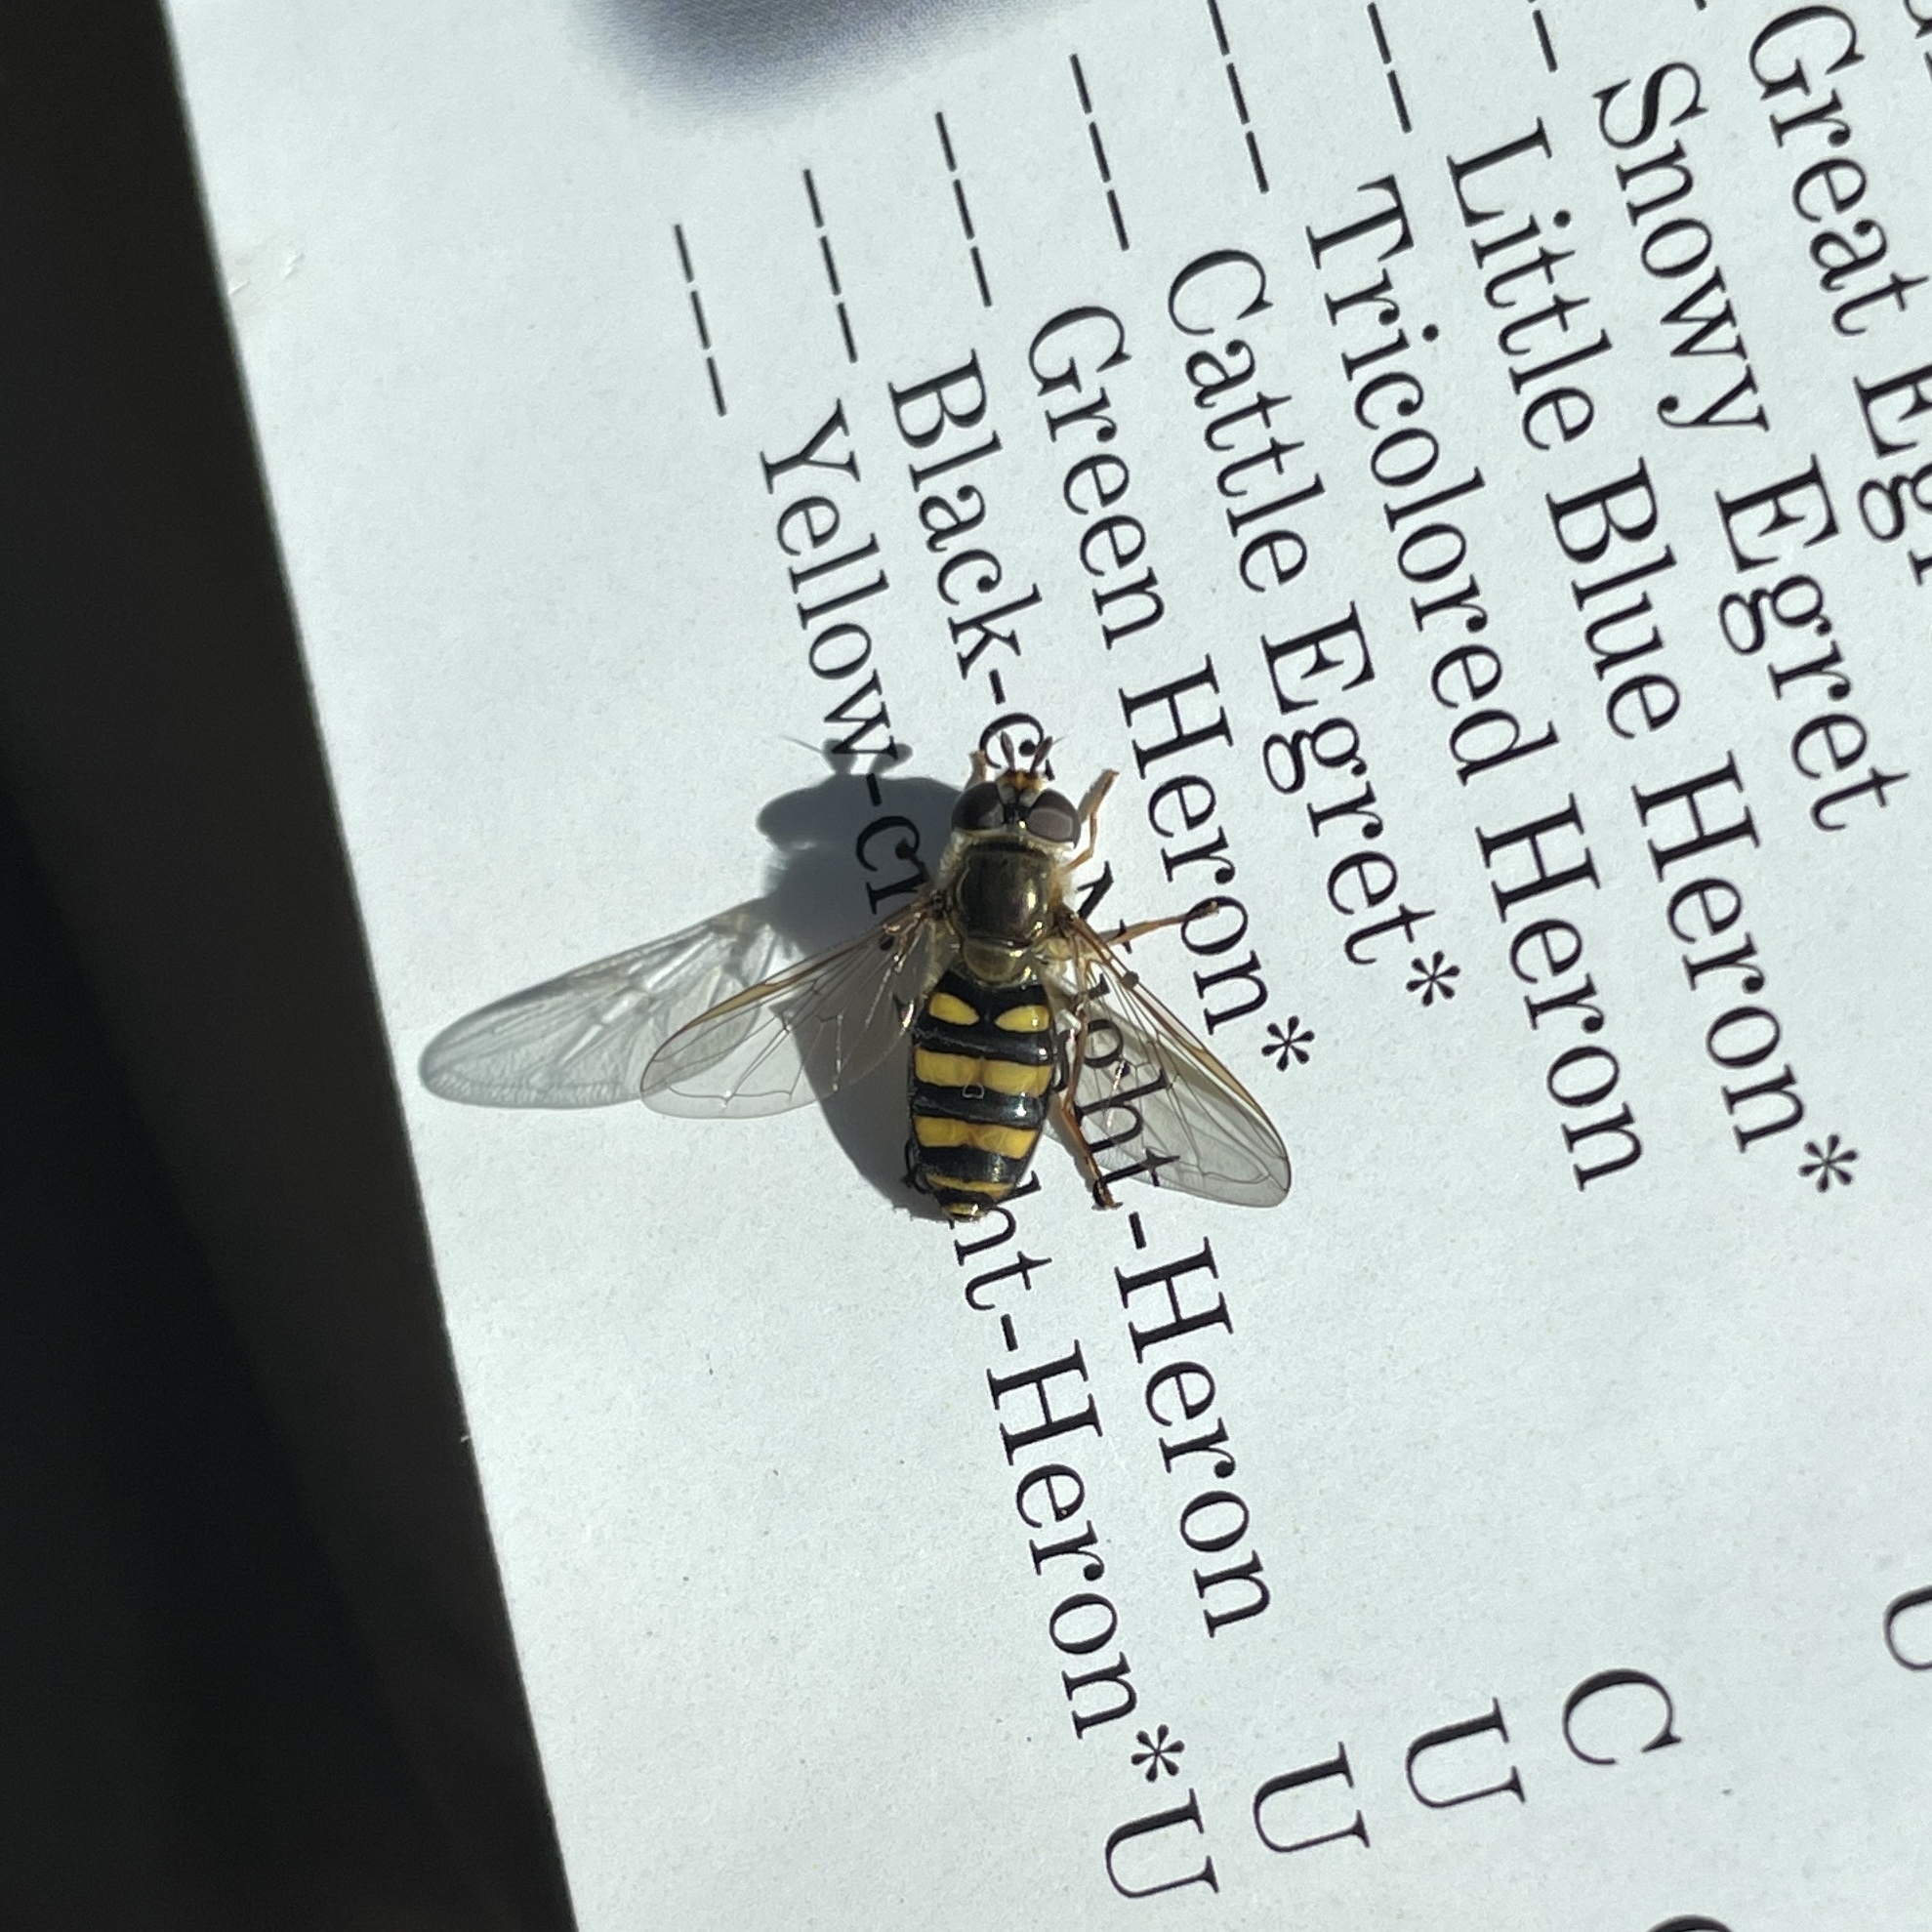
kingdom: Animalia
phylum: Arthropoda
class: Insecta
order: Diptera
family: Syrphidae
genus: Eupeodes
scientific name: Eupeodes
